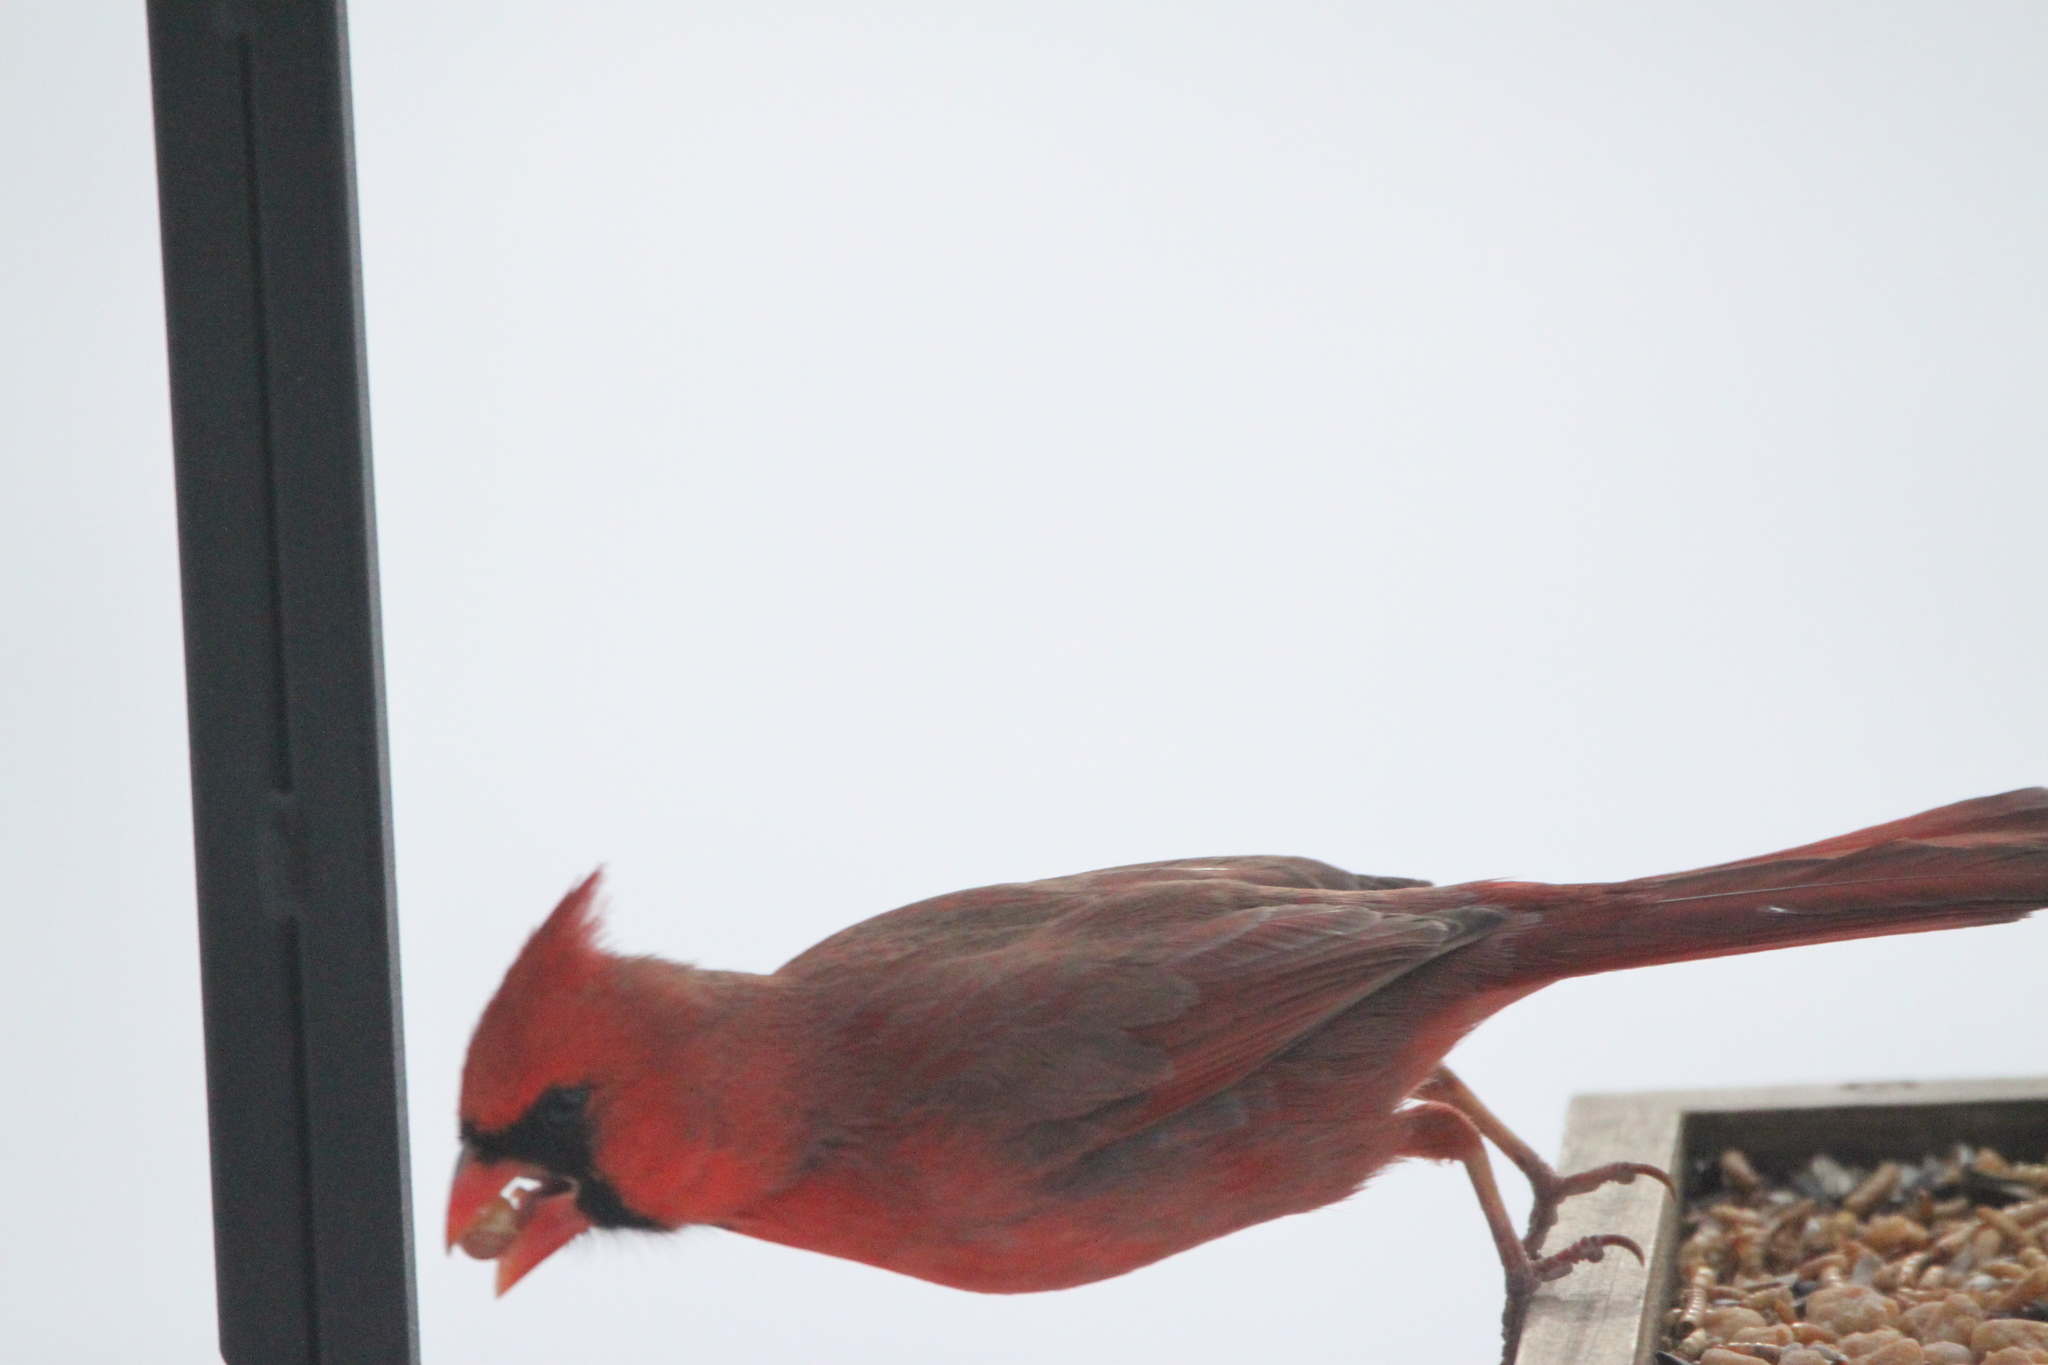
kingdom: Animalia
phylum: Chordata
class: Aves
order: Passeriformes
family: Cardinalidae
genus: Cardinalis
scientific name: Cardinalis cardinalis
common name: Northern cardinal
